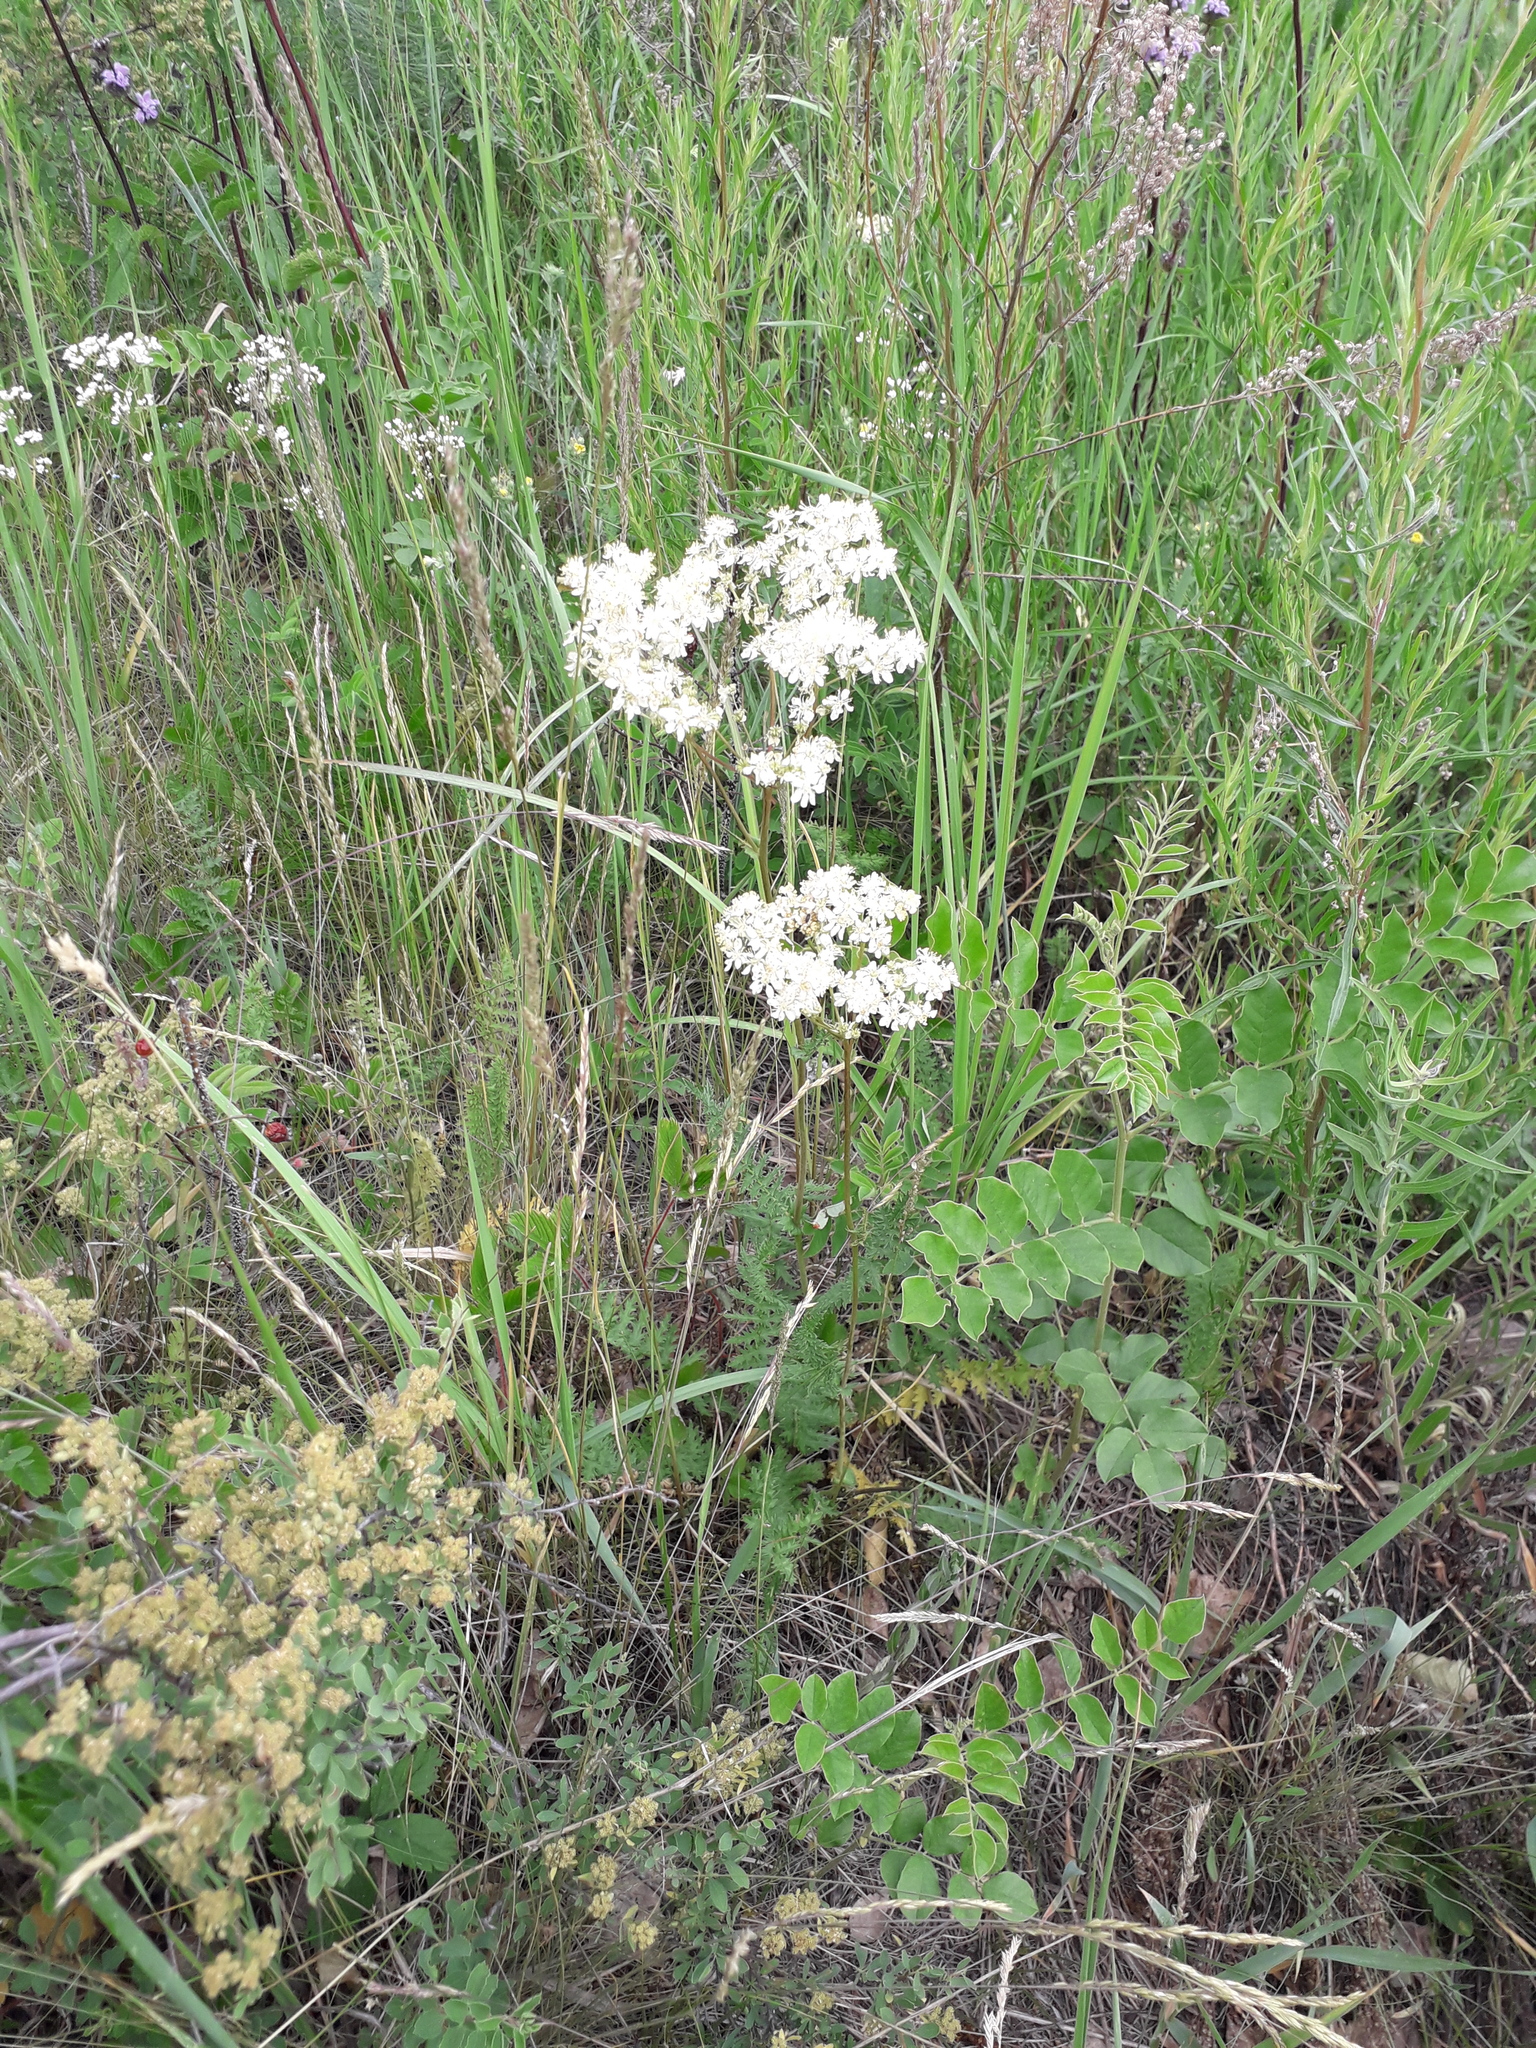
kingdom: Plantae
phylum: Tracheophyta
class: Magnoliopsida
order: Rosales
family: Rosaceae
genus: Filipendula
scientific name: Filipendula vulgaris
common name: Dropwort
